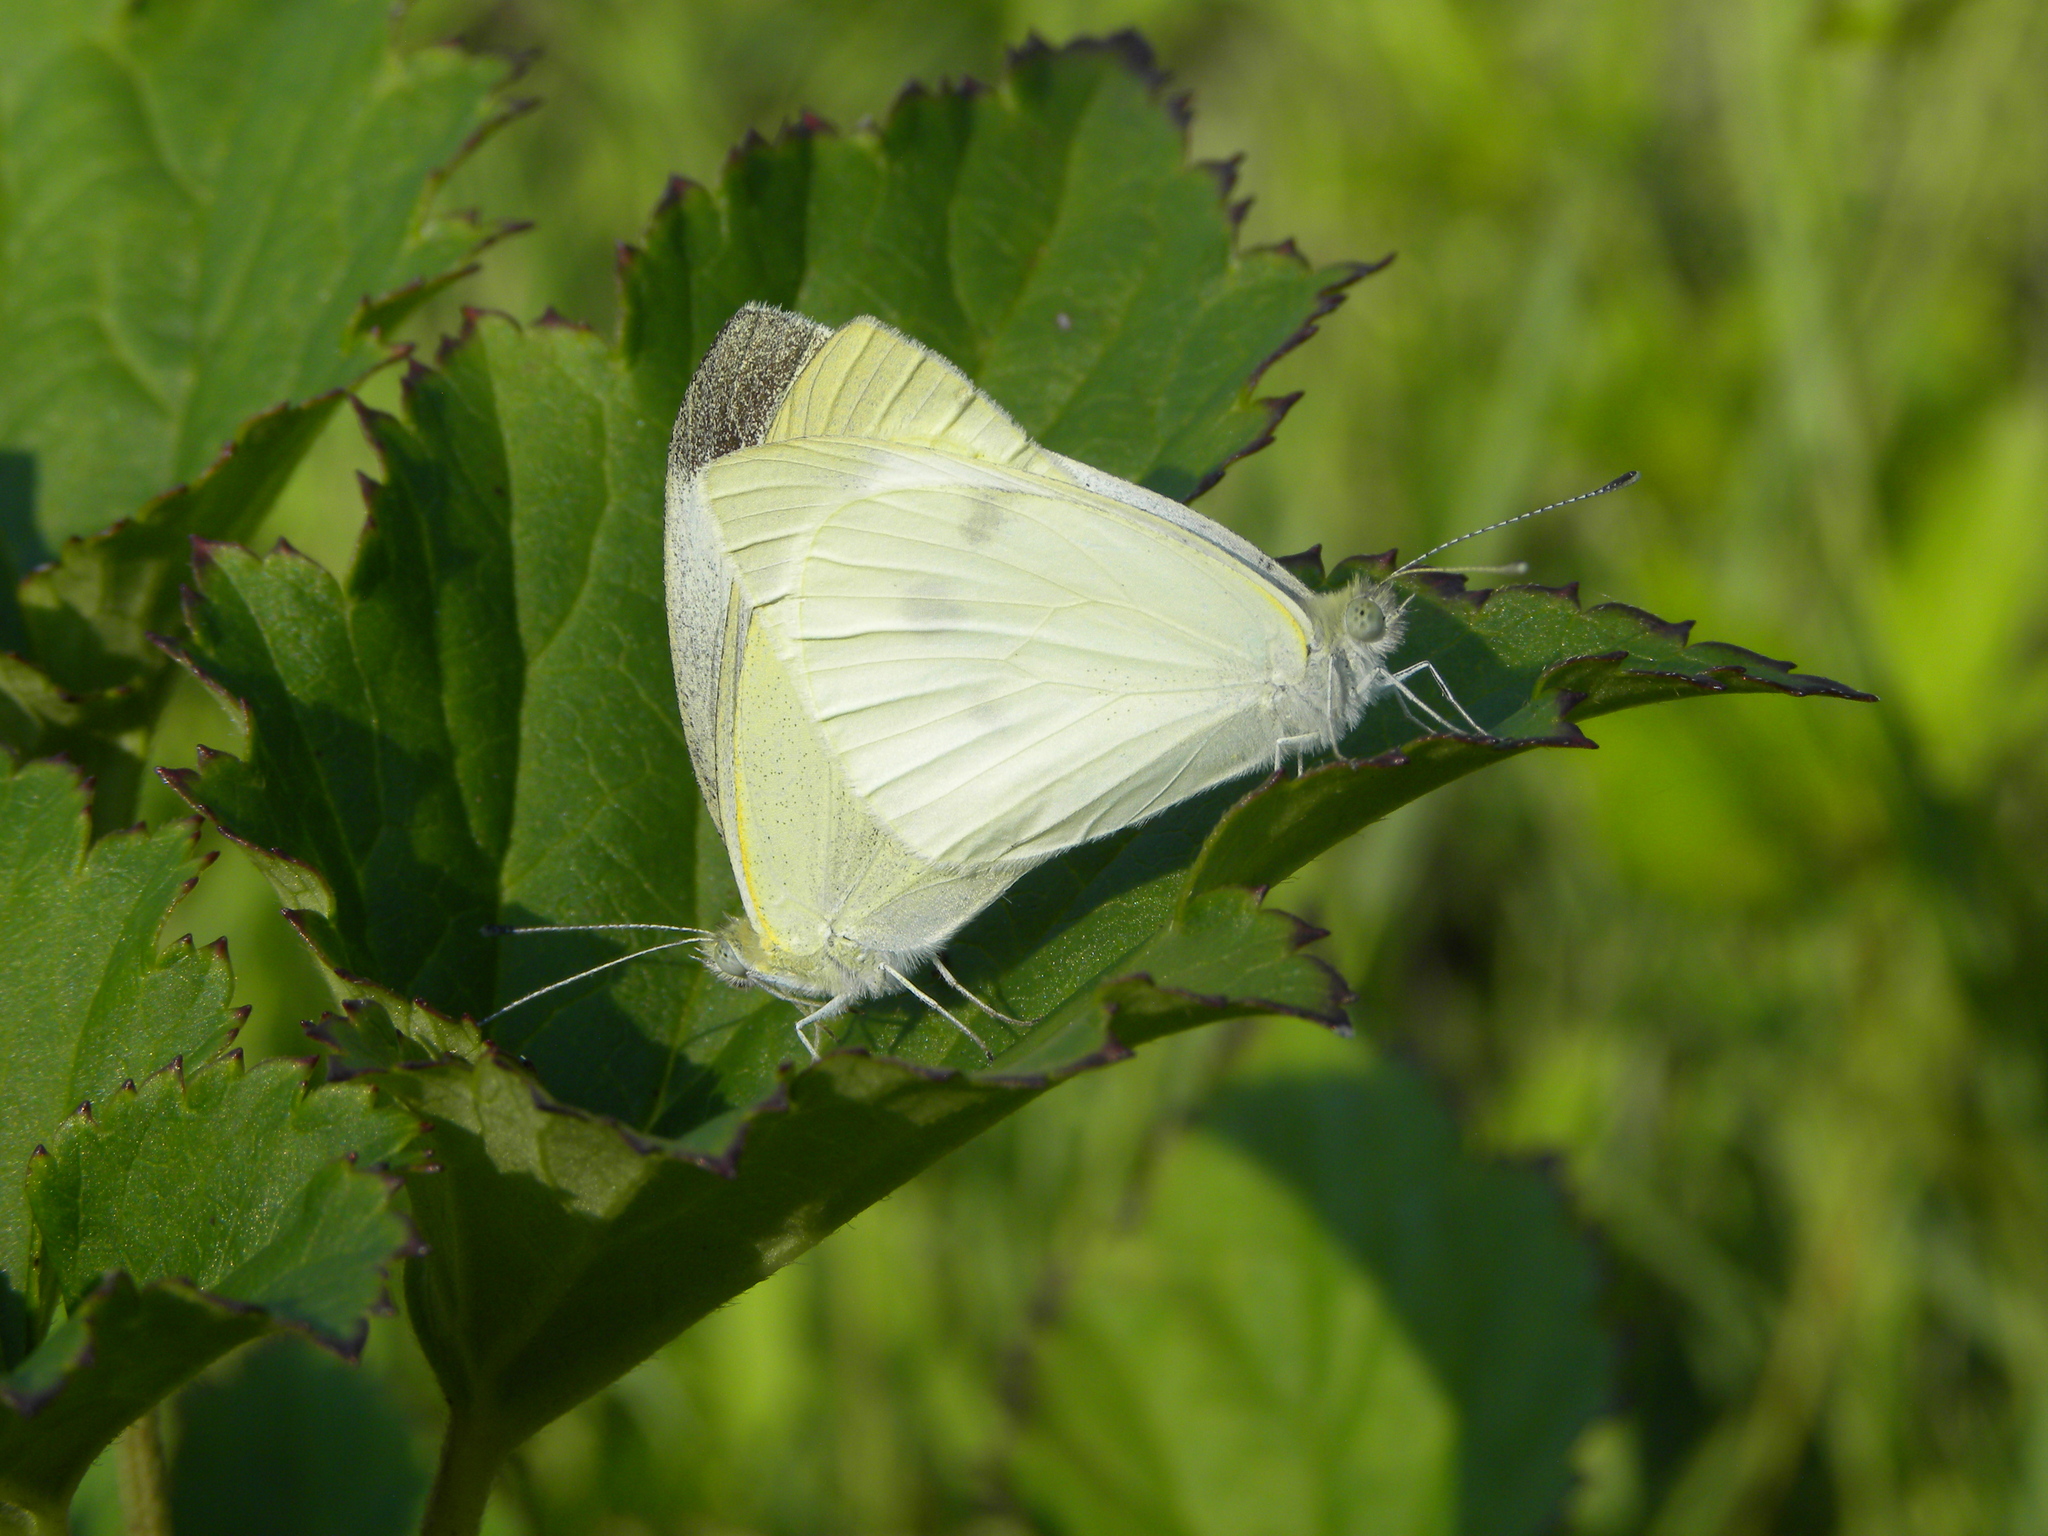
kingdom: Animalia
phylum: Arthropoda
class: Insecta
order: Lepidoptera
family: Pieridae
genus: Pieris
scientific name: Pieris rapae
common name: Small white
